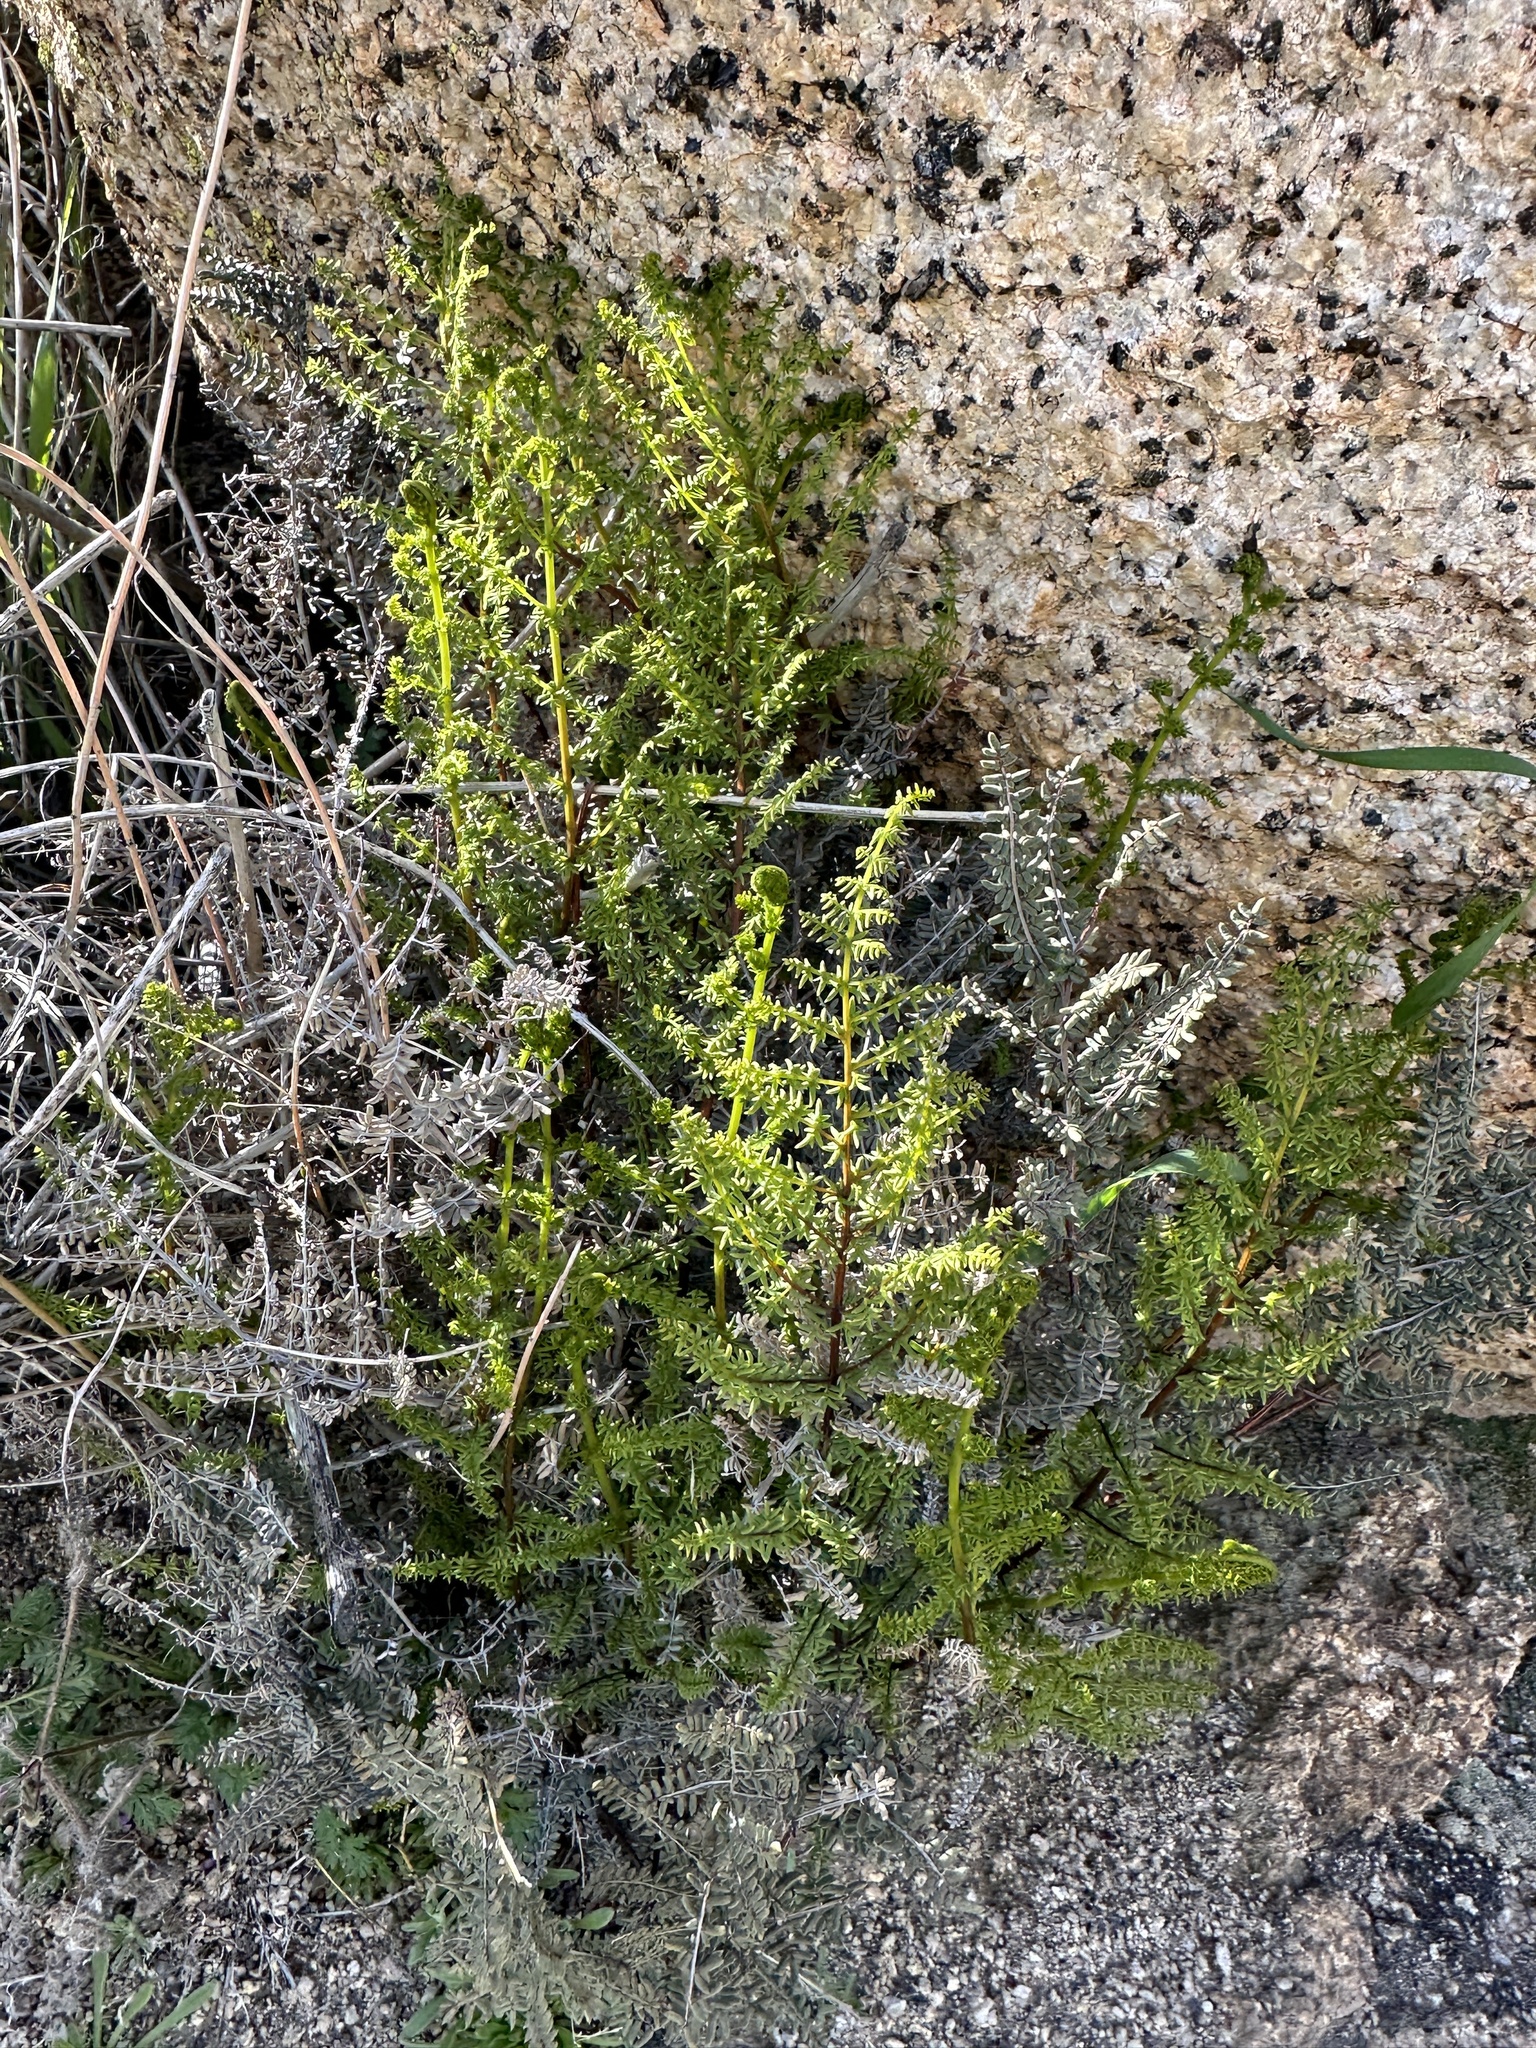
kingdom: Plantae
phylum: Tracheophyta
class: Polypodiopsida
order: Polypodiales
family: Pteridaceae
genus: Pellaea
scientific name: Pellaea mucronata
